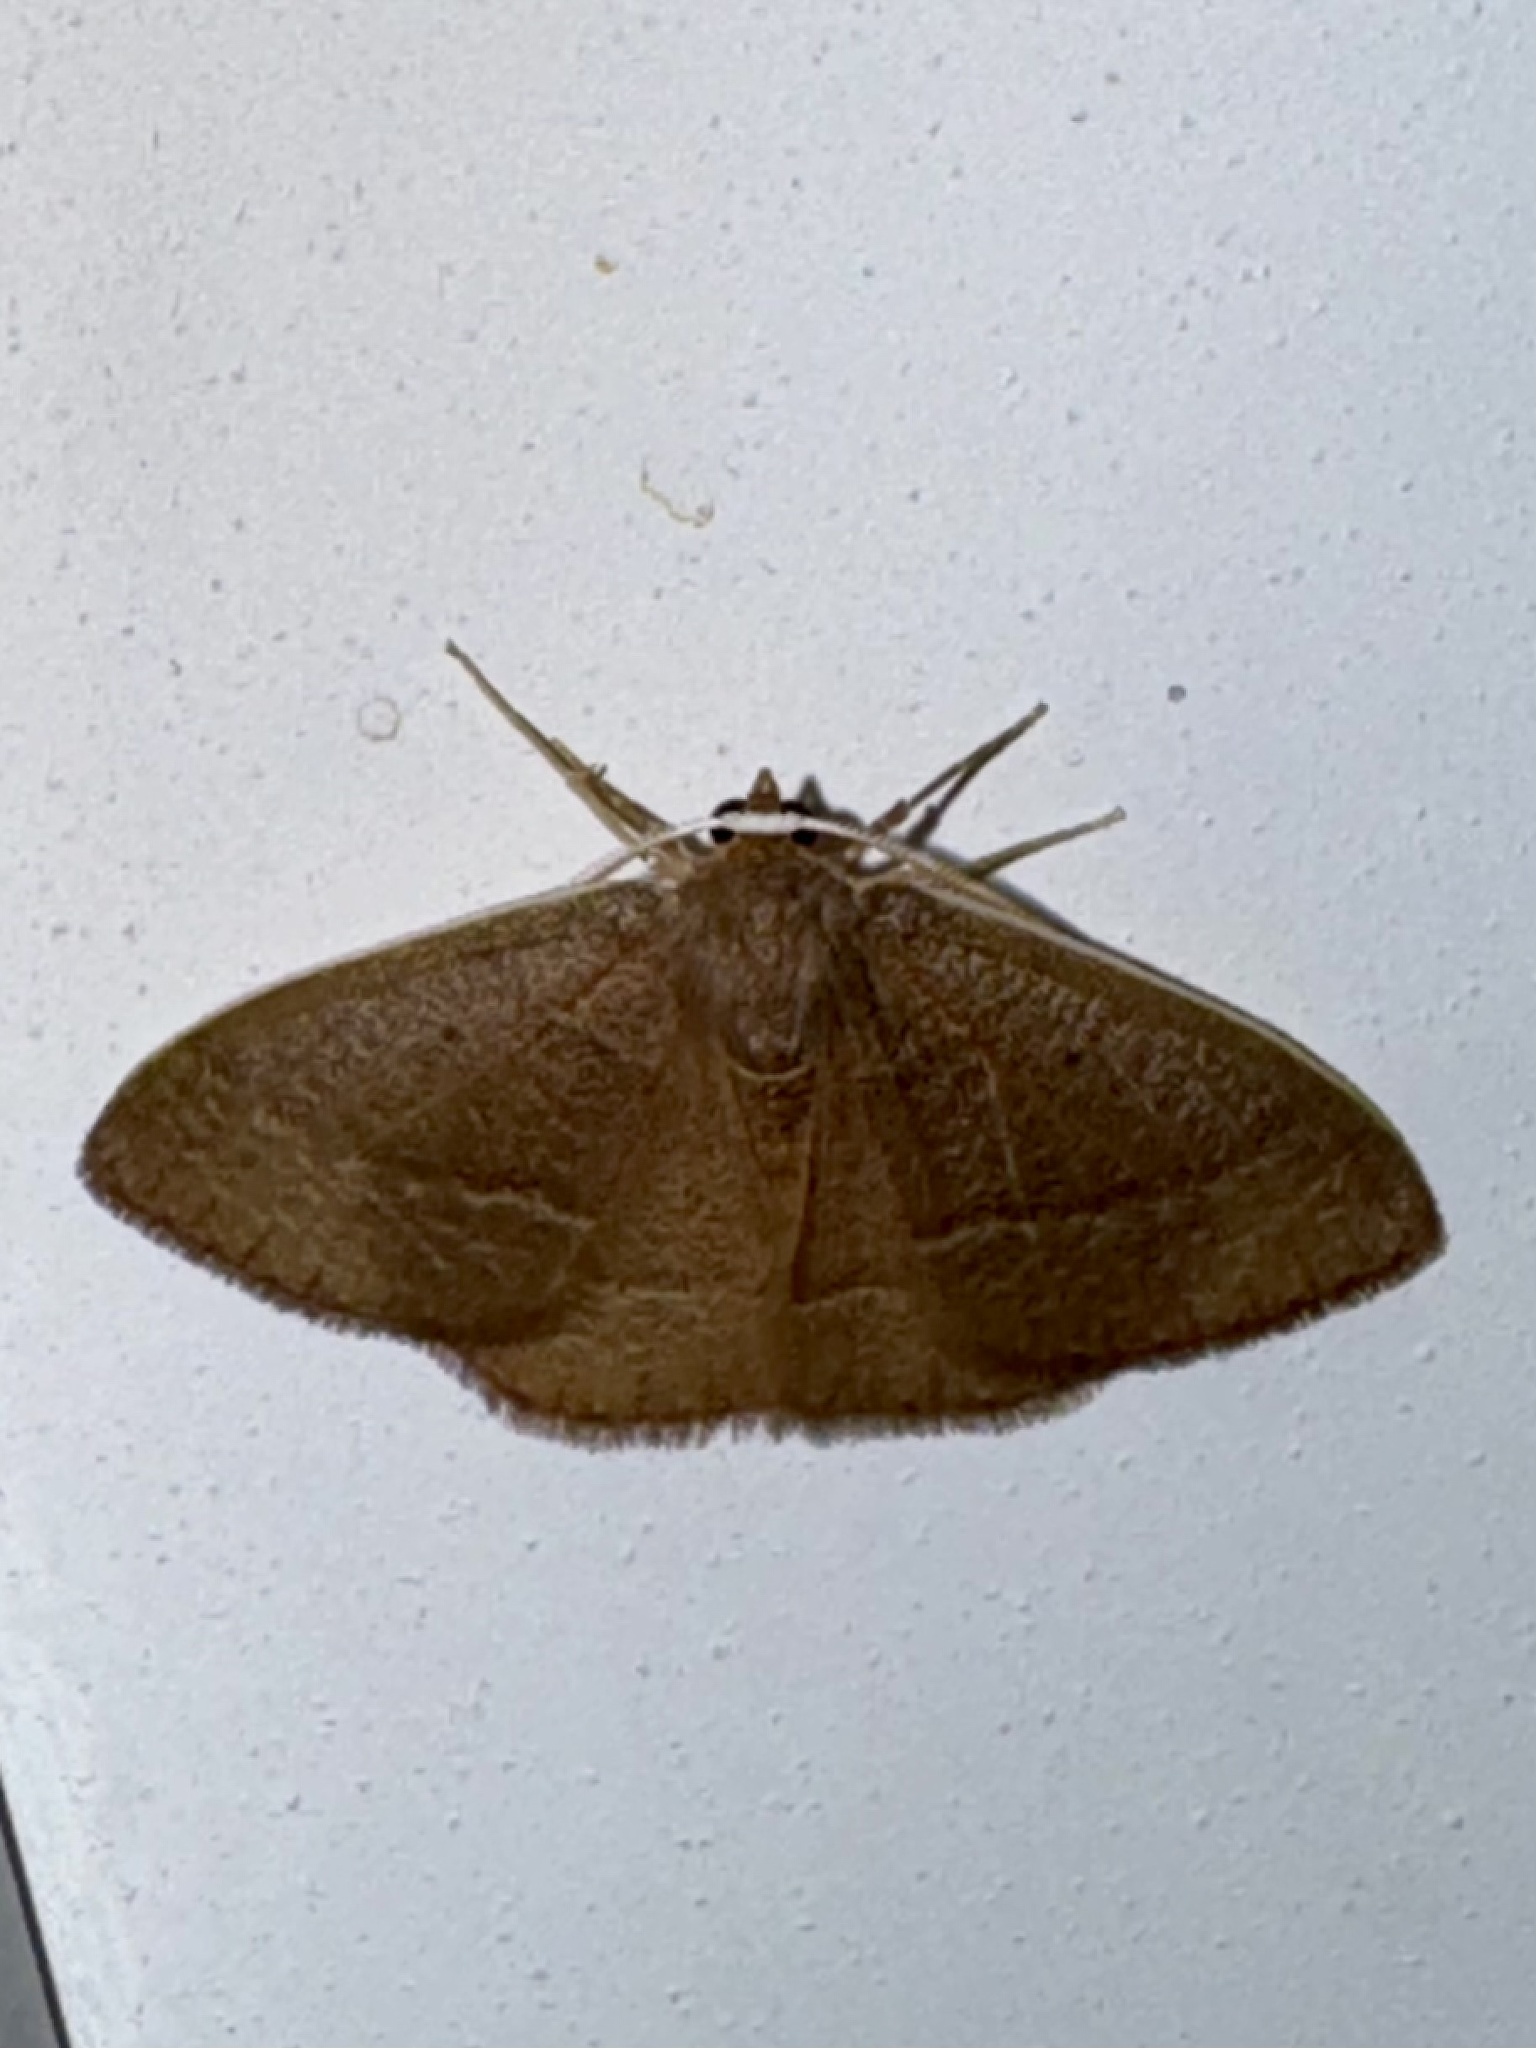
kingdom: Animalia
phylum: Arthropoda
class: Insecta
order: Lepidoptera
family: Geometridae
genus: Nemoria
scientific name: Nemoria bistriaria
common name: Red-fringed emerald
